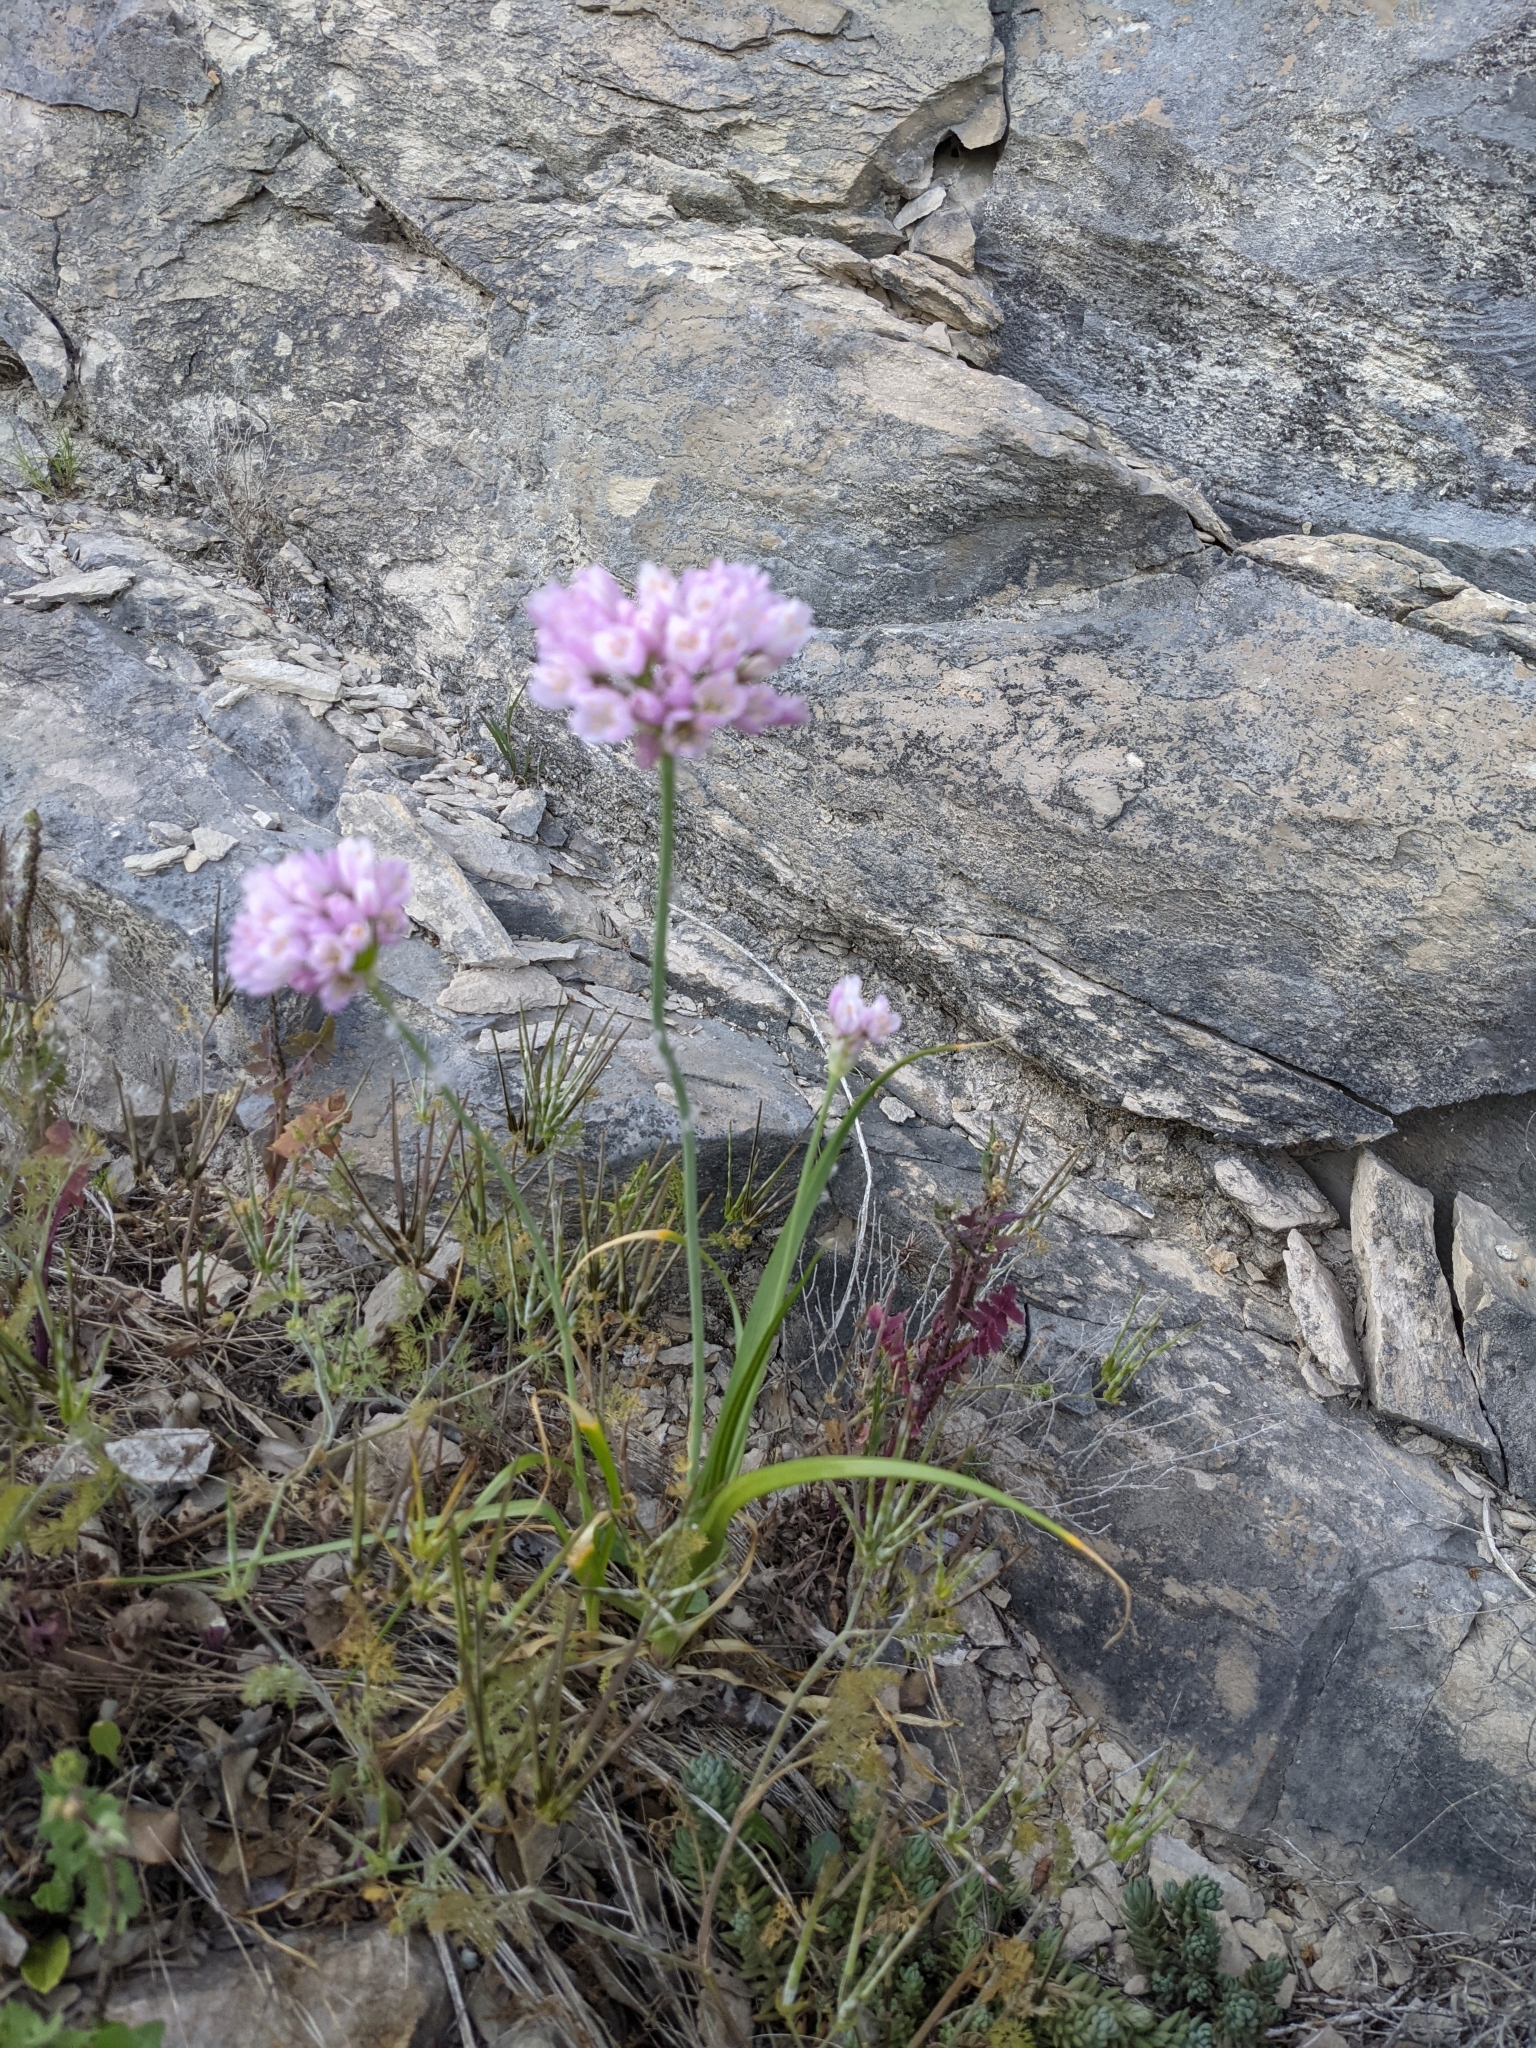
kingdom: Plantae
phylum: Tracheophyta
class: Liliopsida
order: Asparagales
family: Amaryllidaceae
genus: Allium
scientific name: Allium roseum
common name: Rosy garlic
